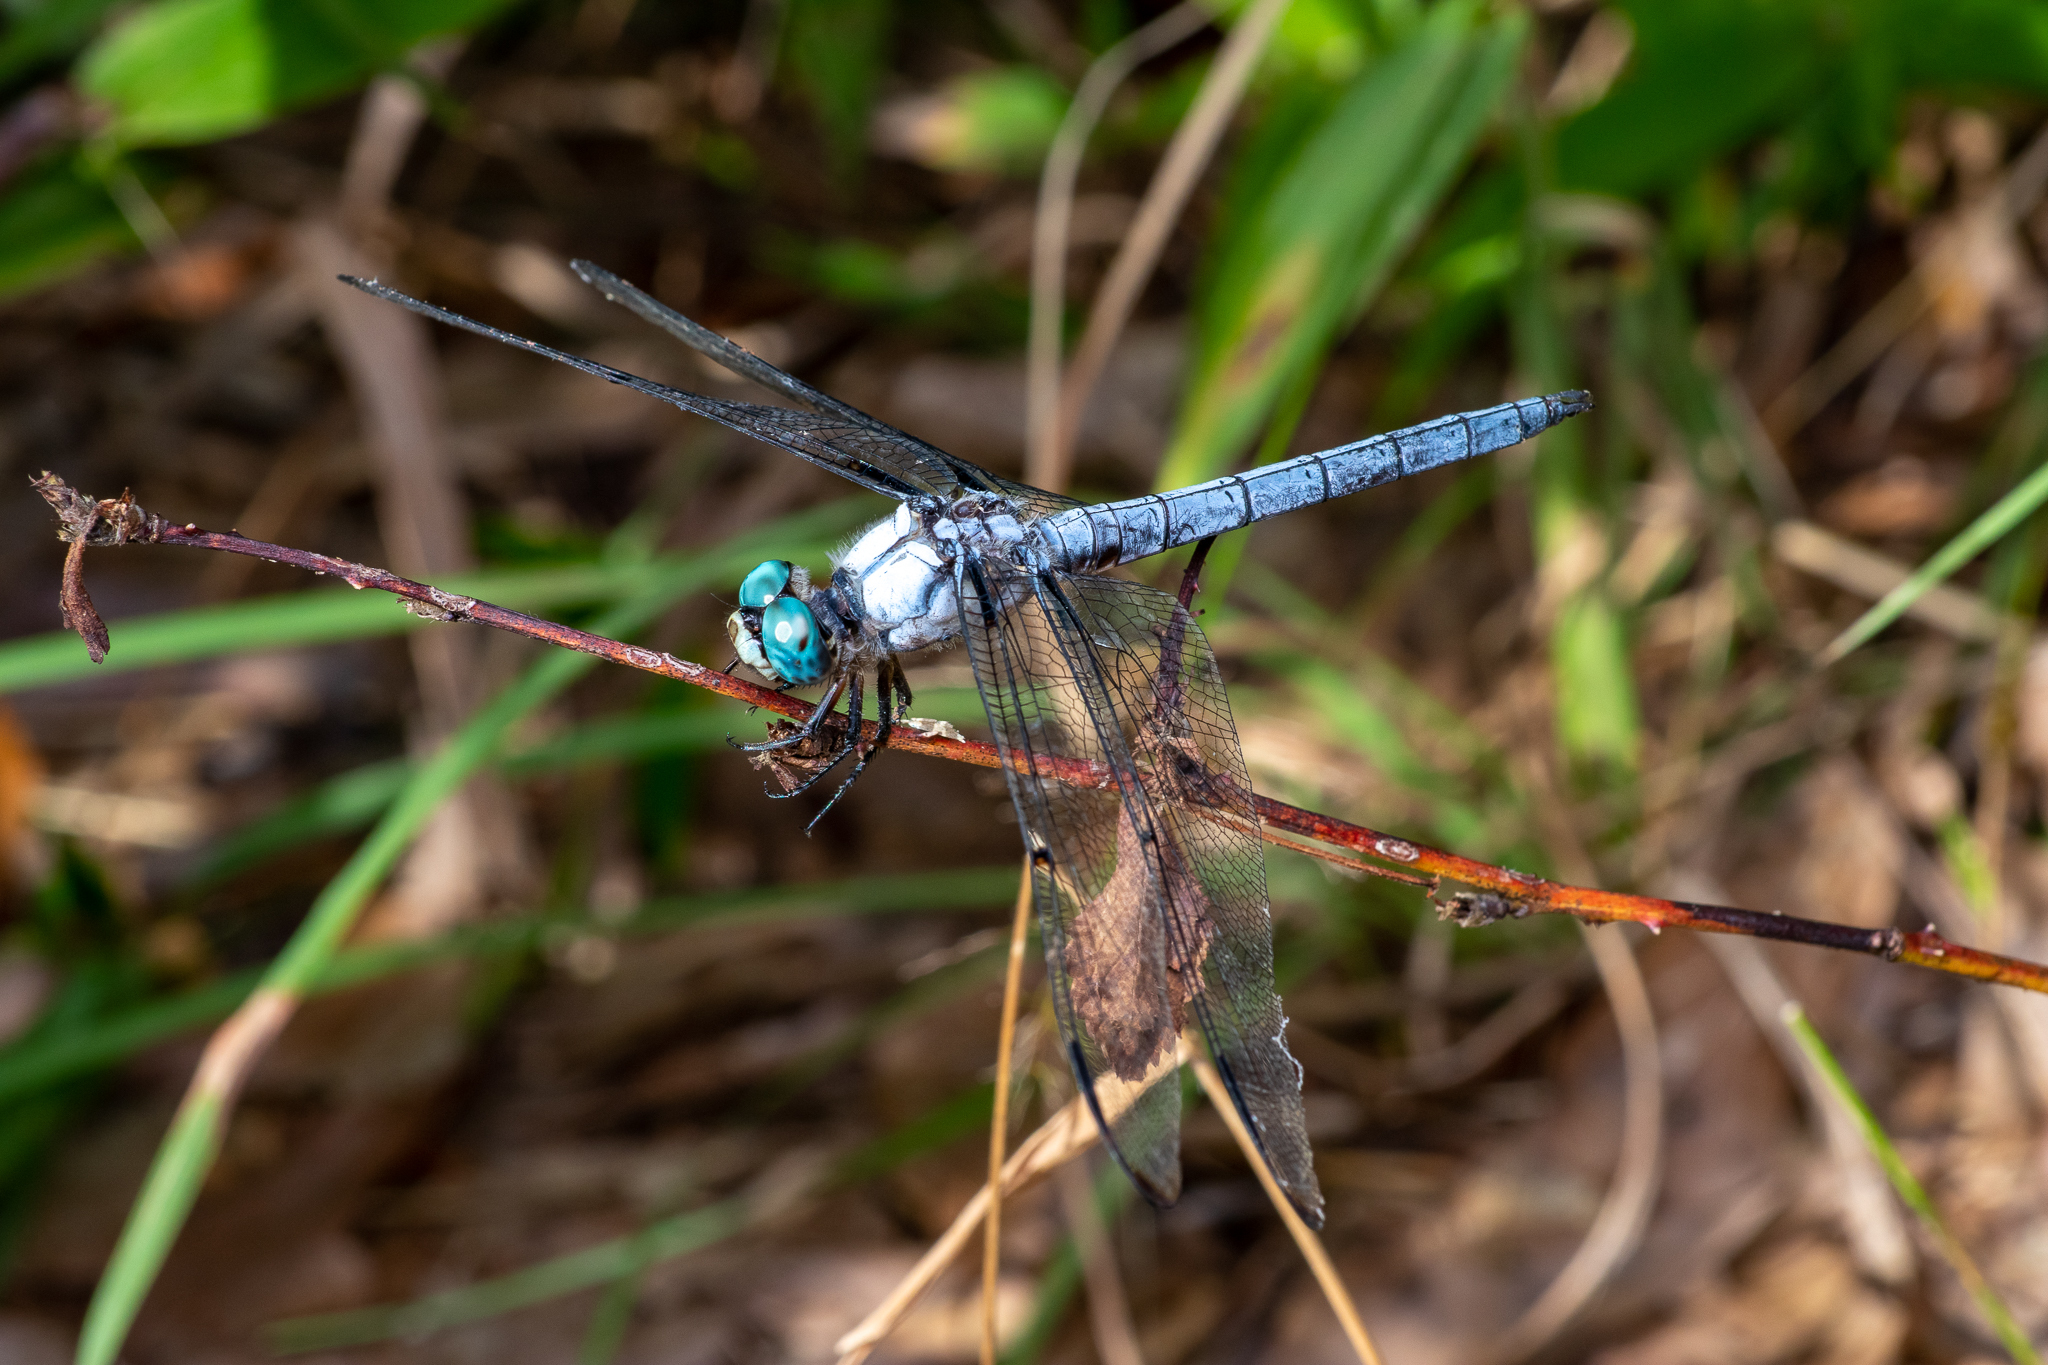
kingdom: Animalia
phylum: Arthropoda
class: Insecta
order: Odonata
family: Libellulidae
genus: Libellula
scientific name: Libellula vibrans
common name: Great blue skimmer
